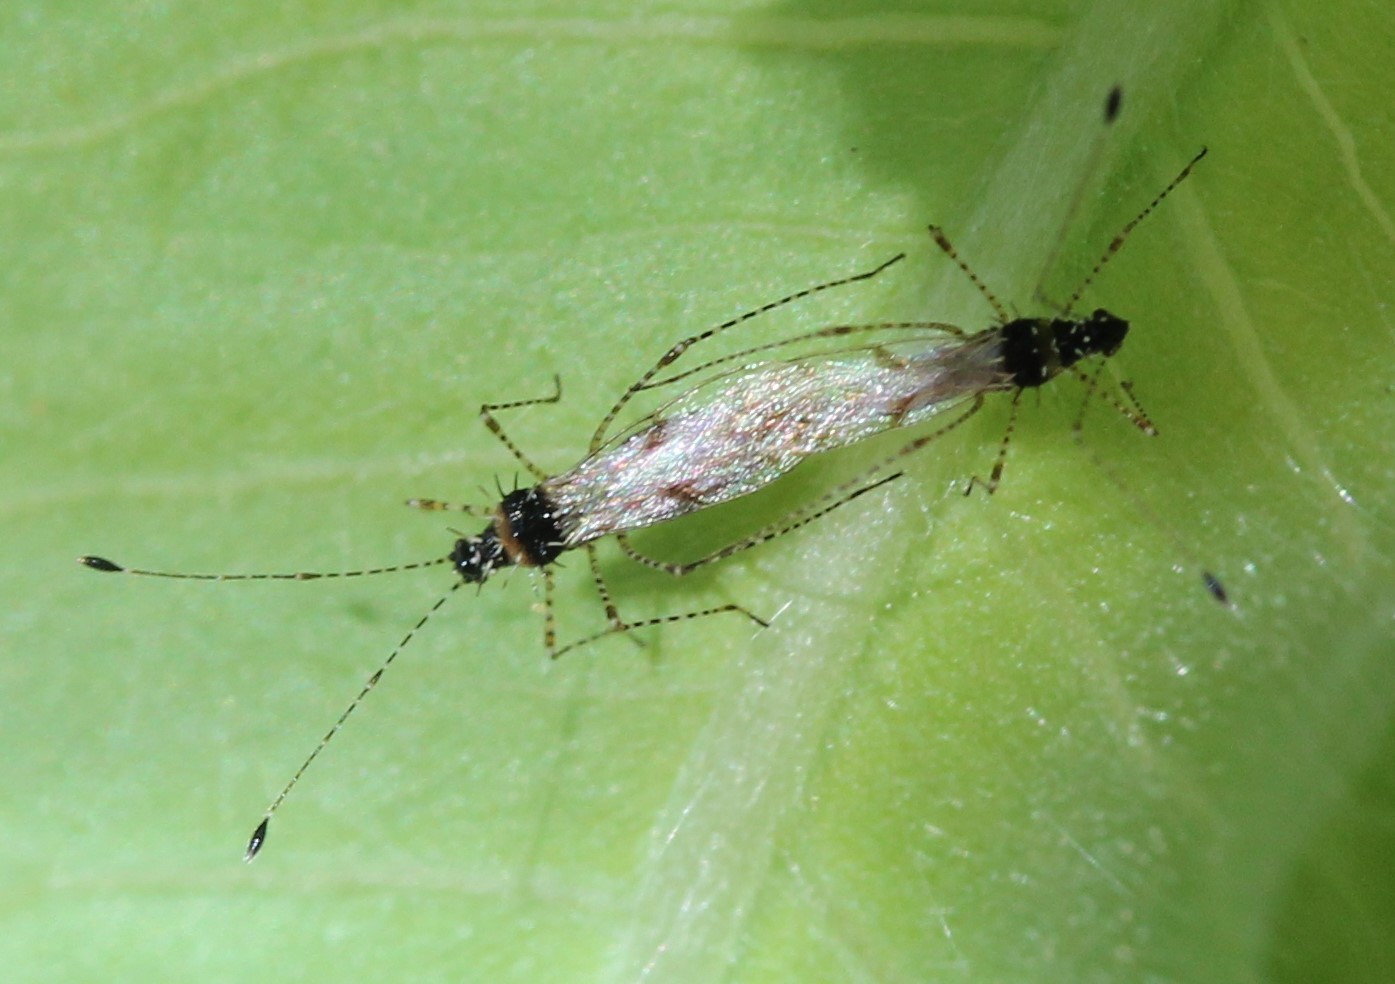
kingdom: Animalia
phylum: Arthropoda
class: Insecta
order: Hemiptera
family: Berytidae
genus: Pronotacantha
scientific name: Pronotacantha annulata
